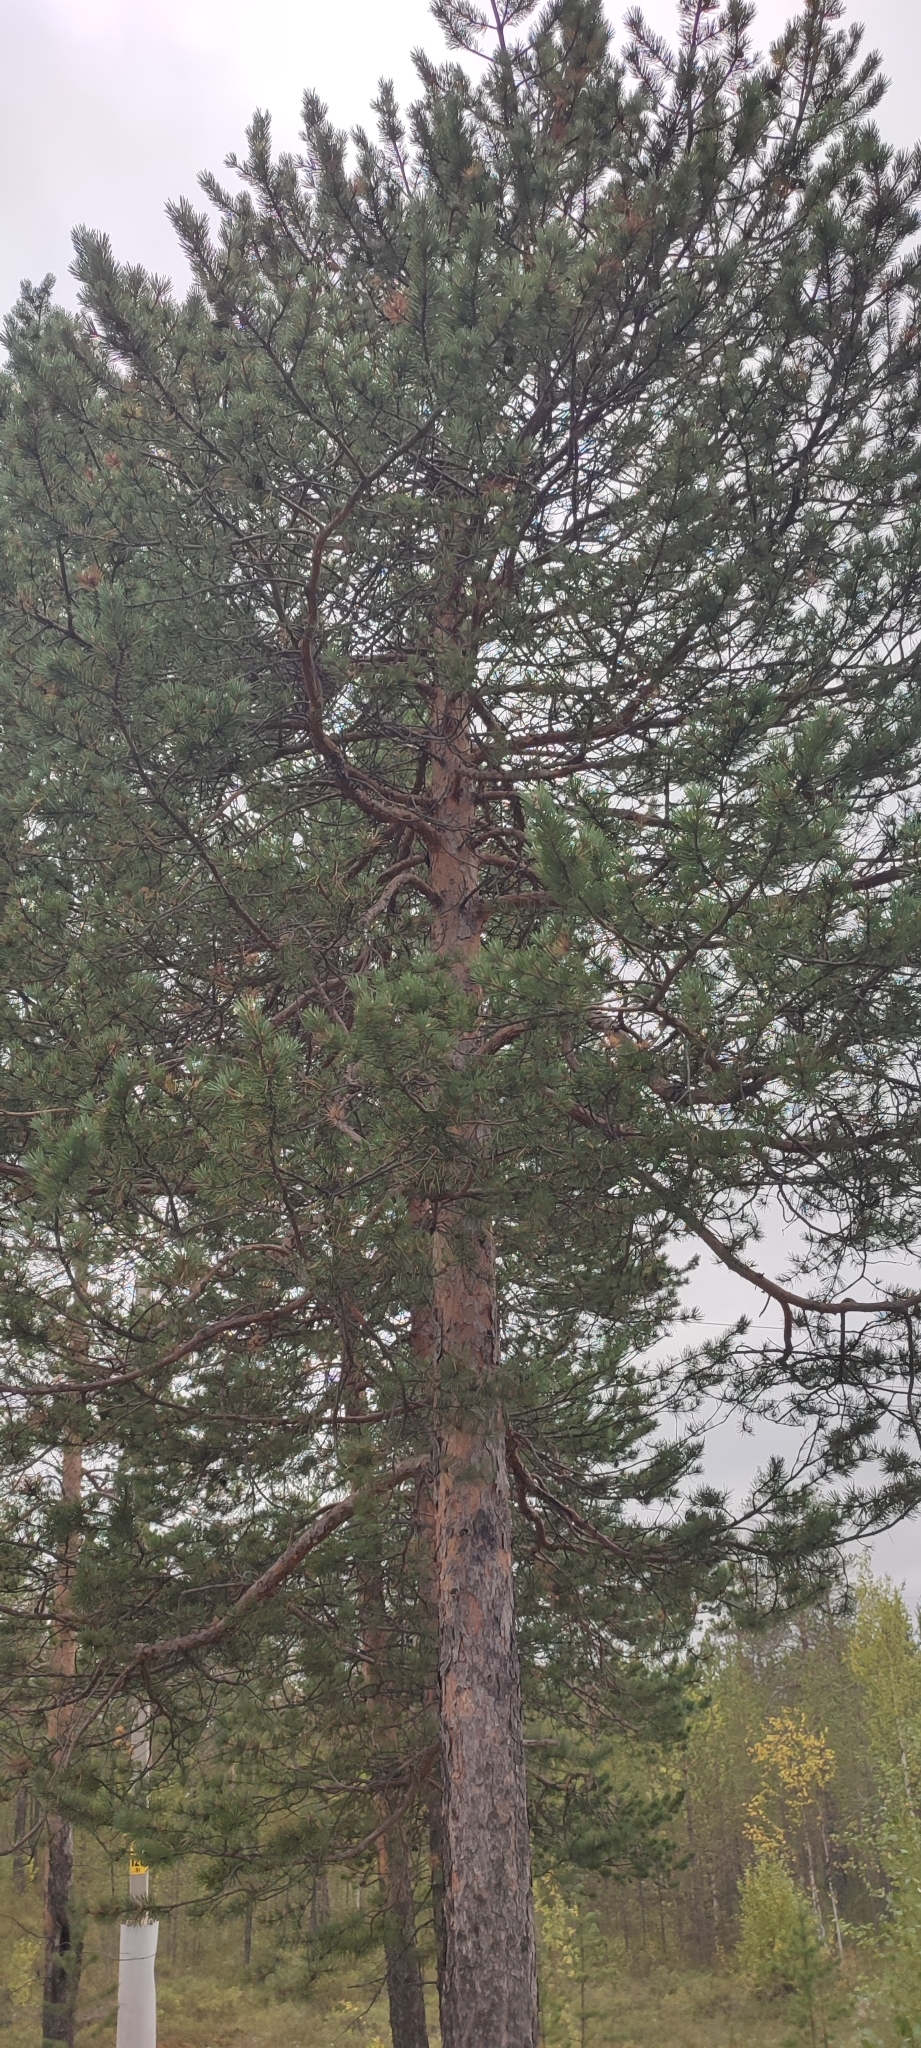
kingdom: Plantae
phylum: Tracheophyta
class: Pinopsida
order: Pinales
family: Pinaceae
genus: Pinus
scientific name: Pinus sylvestris
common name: Scots pine
